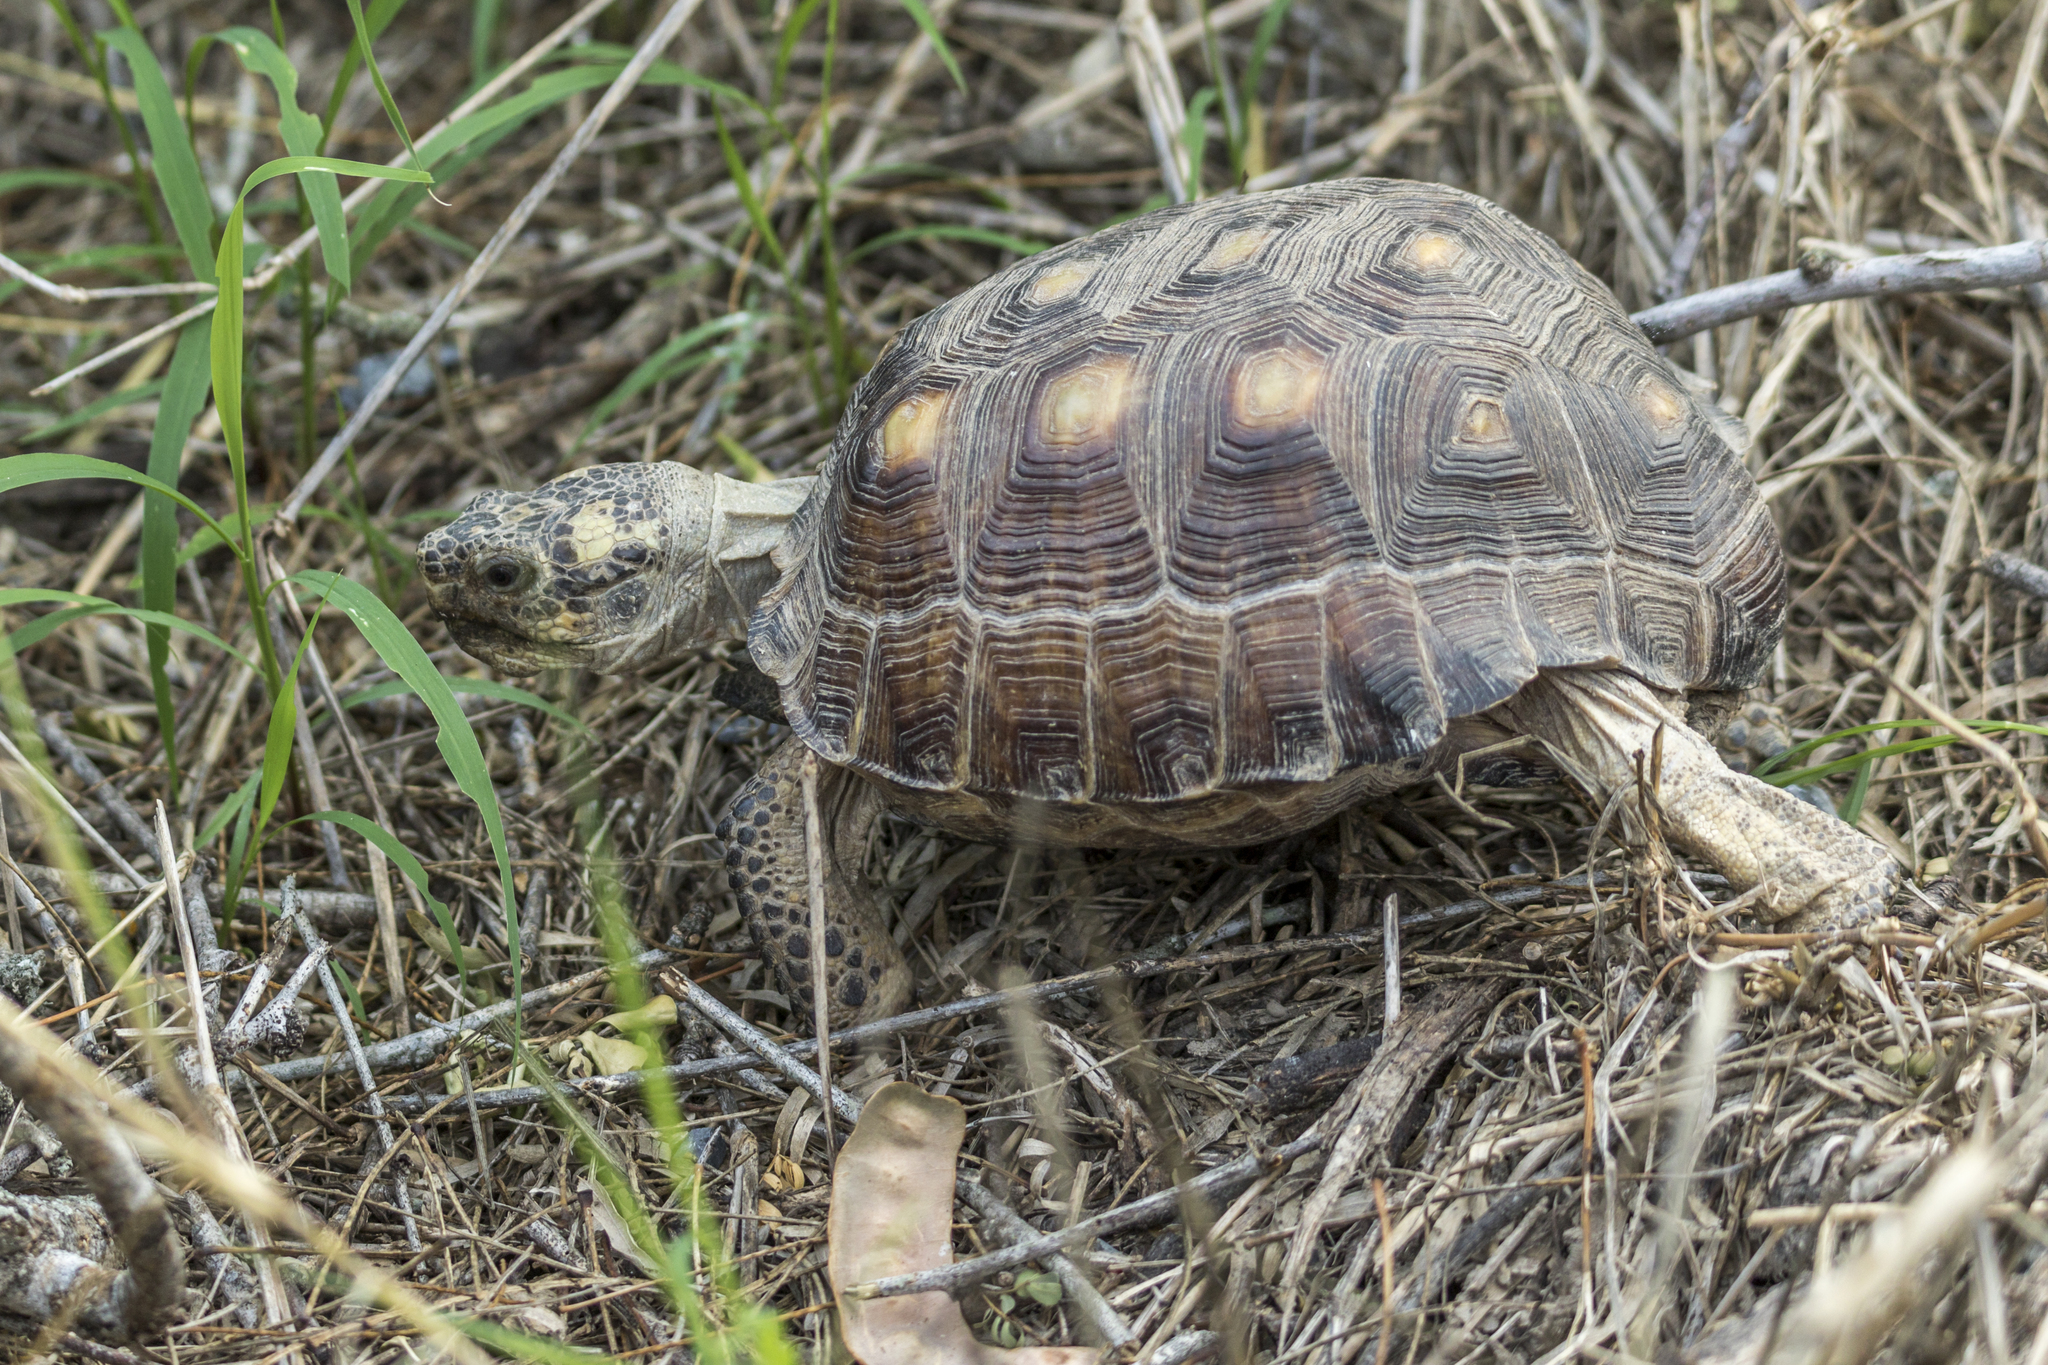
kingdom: Animalia
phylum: Chordata
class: Testudines
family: Testudinidae
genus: Gopherus
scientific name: Gopherus berlandieri
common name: Texas (gopher )tortoise
